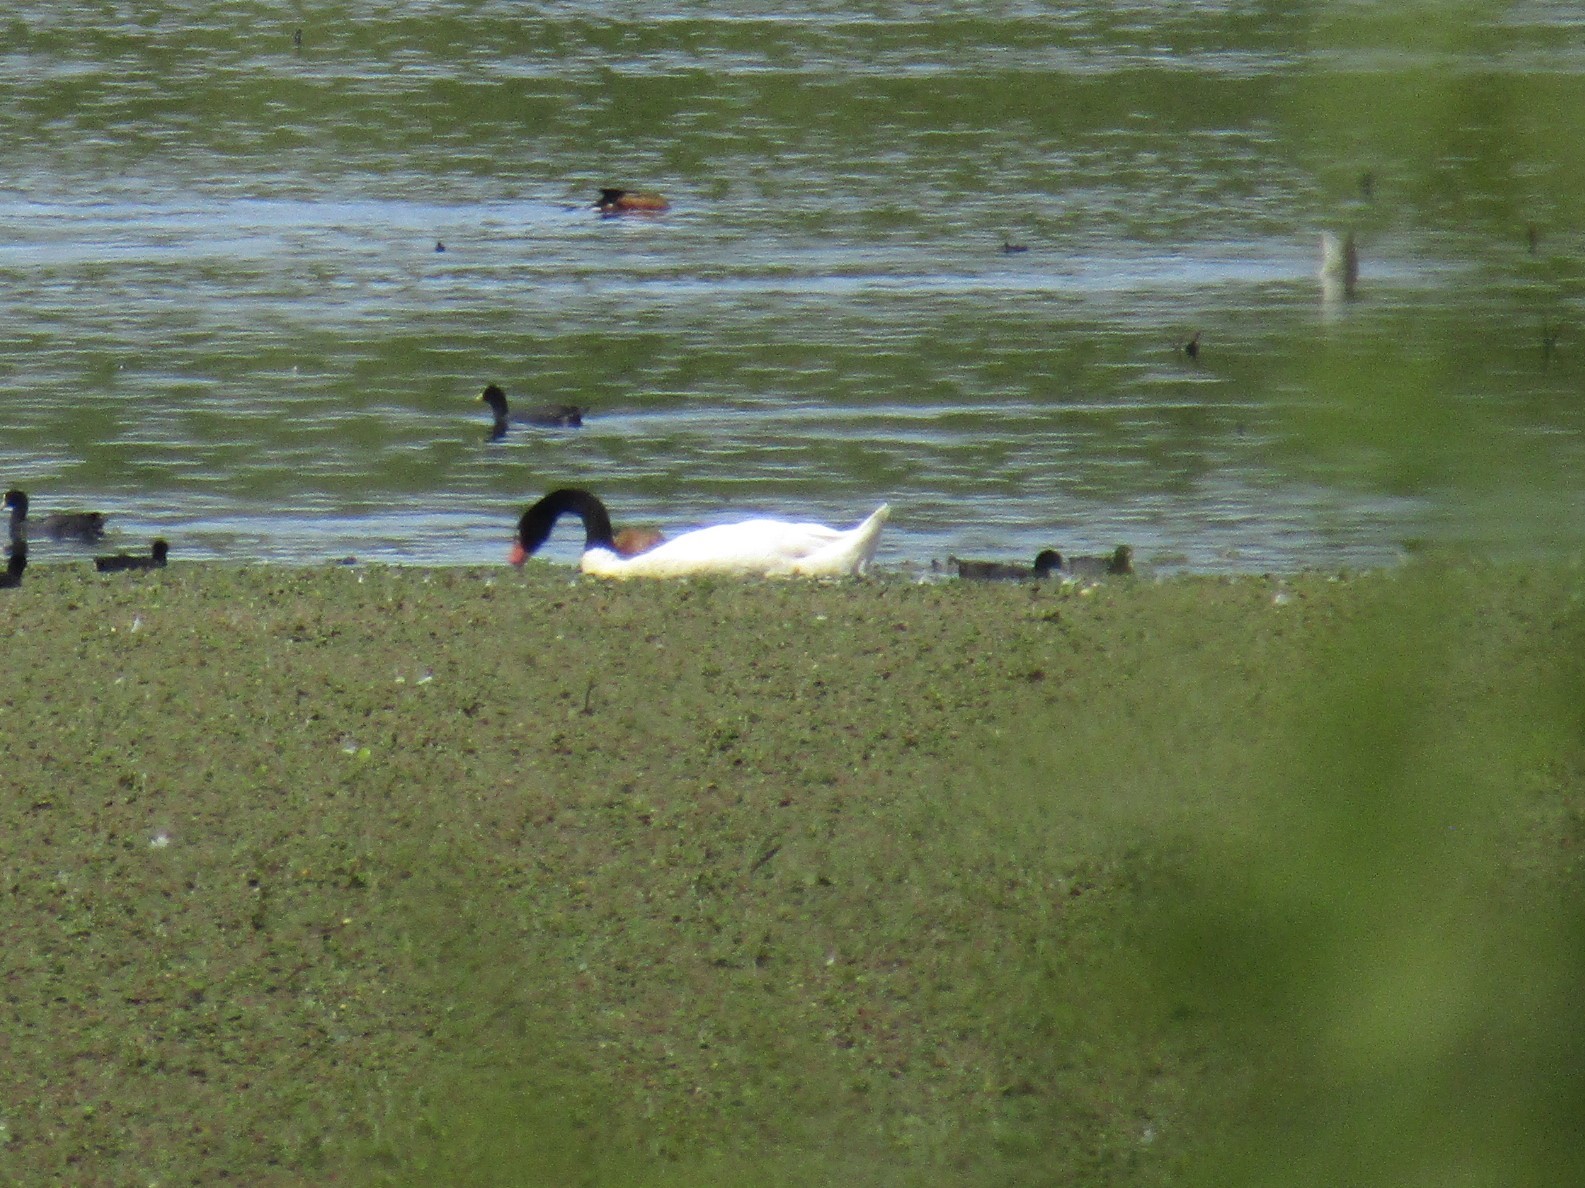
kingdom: Animalia
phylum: Chordata
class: Aves
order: Anseriformes
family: Anatidae
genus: Cygnus
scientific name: Cygnus melancoryphus
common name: Black-necked swan
